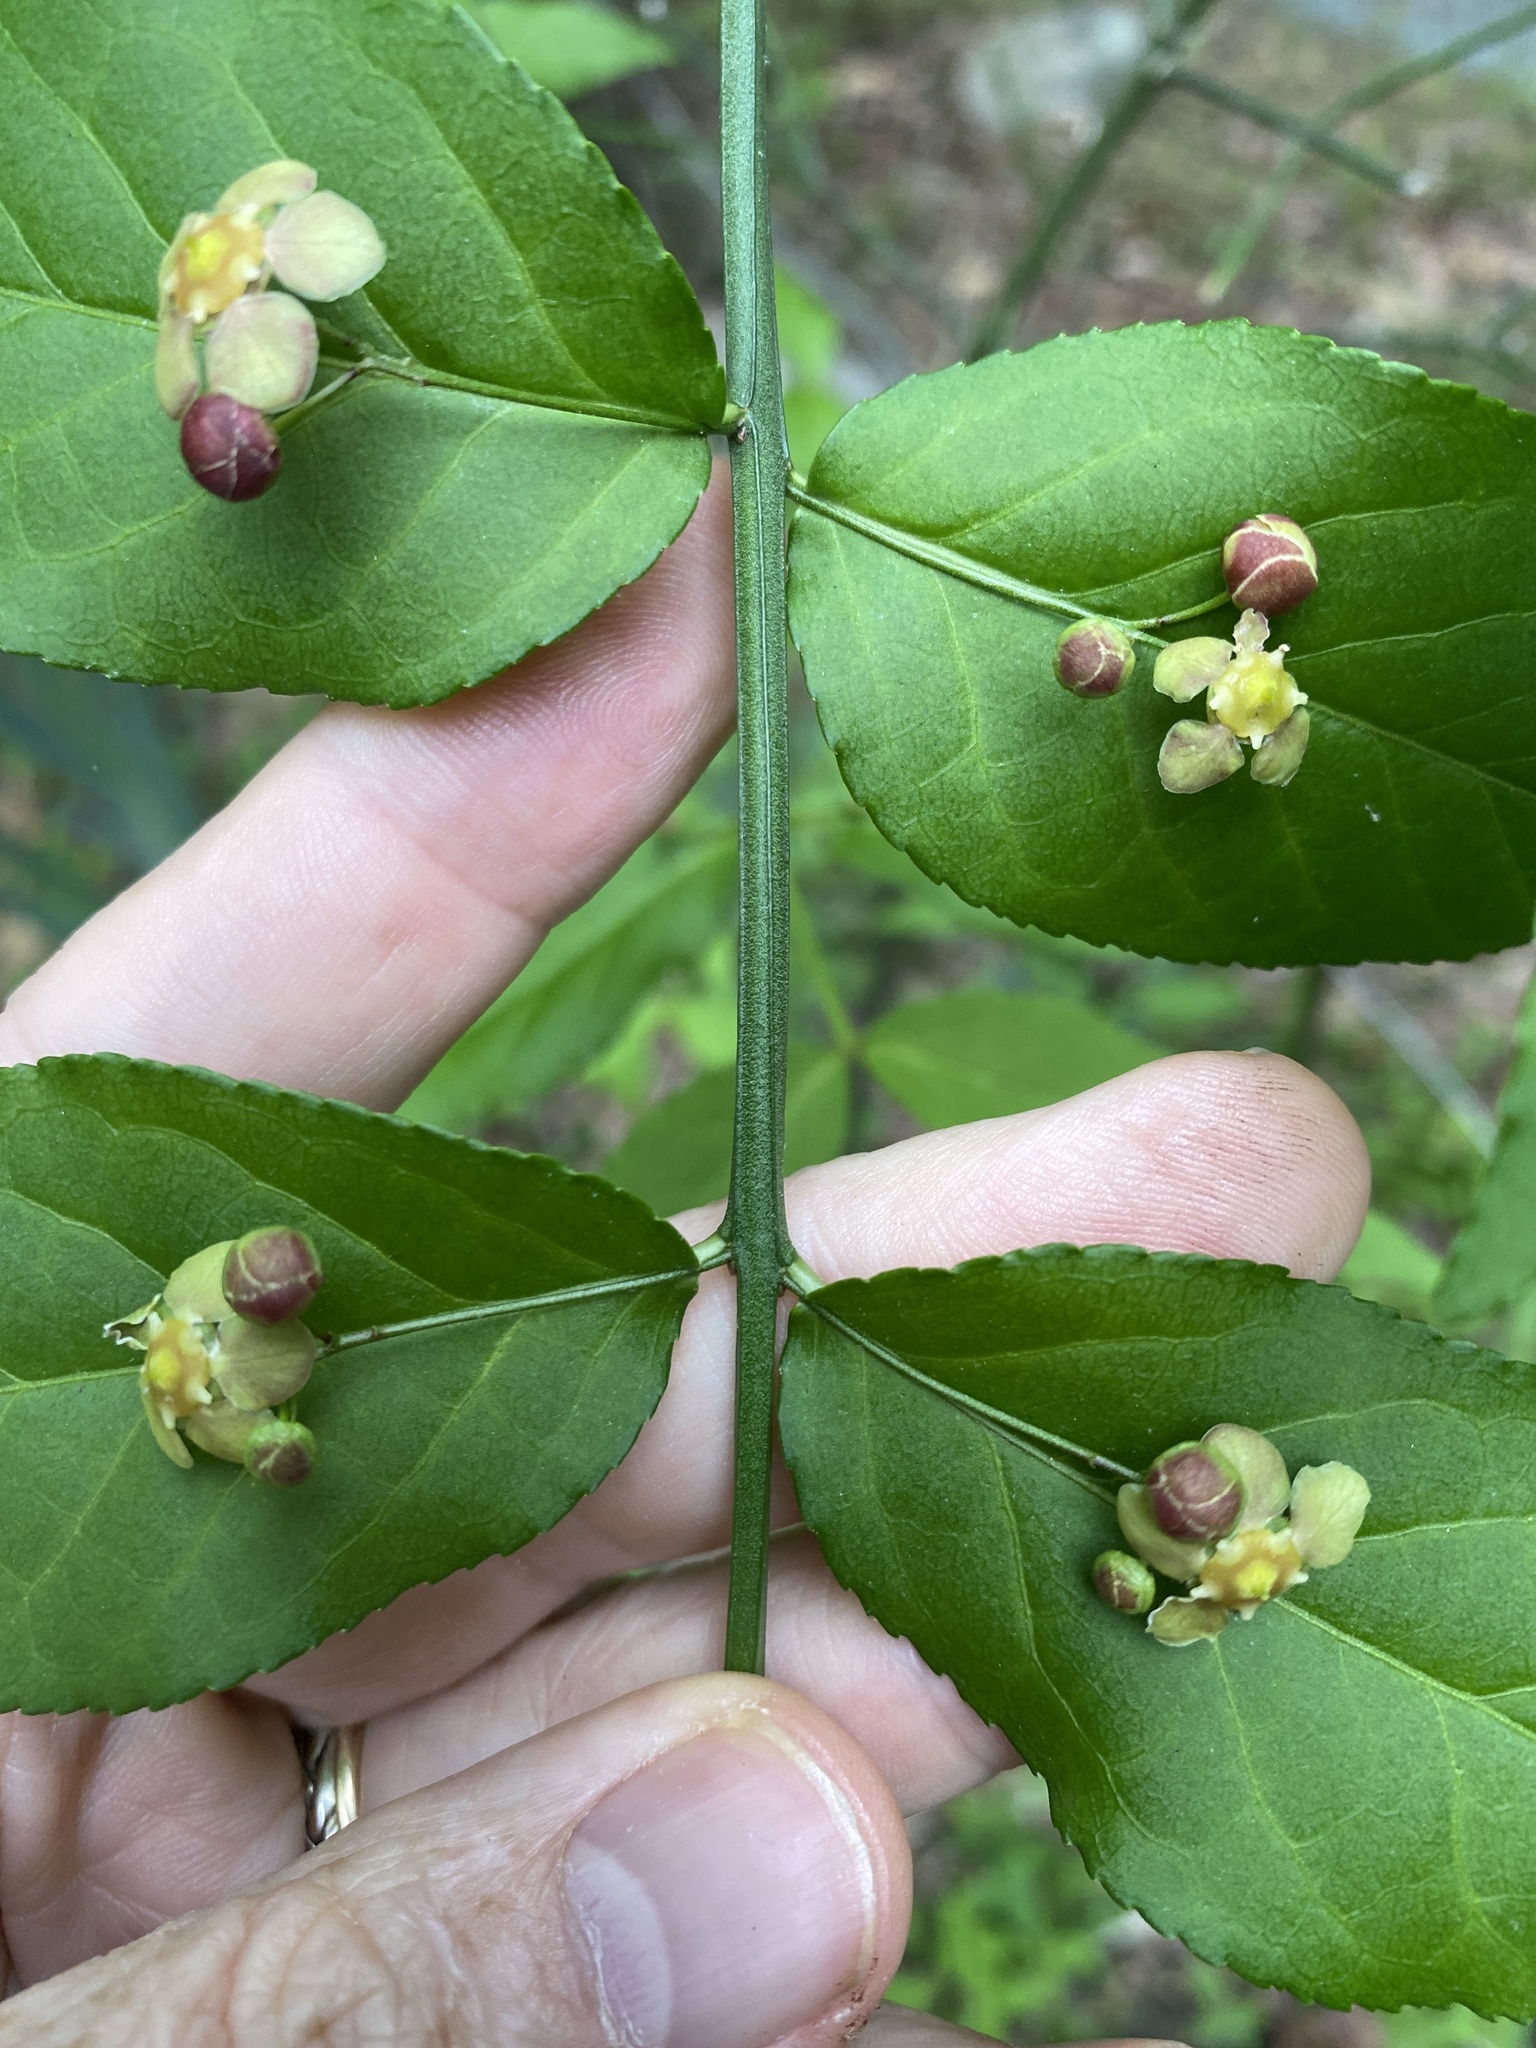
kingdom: Plantae
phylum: Tracheophyta
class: Magnoliopsida
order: Celastrales
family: Celastraceae
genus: Euonymus
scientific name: Euonymus americanus
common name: Bursting-heart
